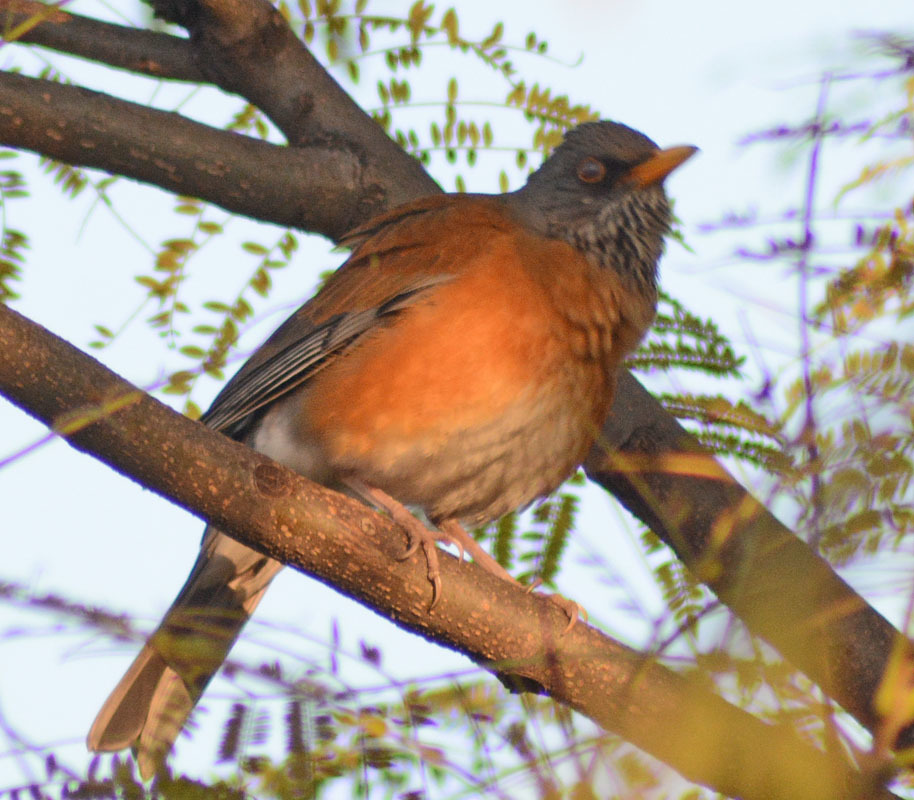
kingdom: Animalia
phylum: Chordata
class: Aves
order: Passeriformes
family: Turdidae
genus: Turdus
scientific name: Turdus rufopalliatus
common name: Rufous-backed robin
